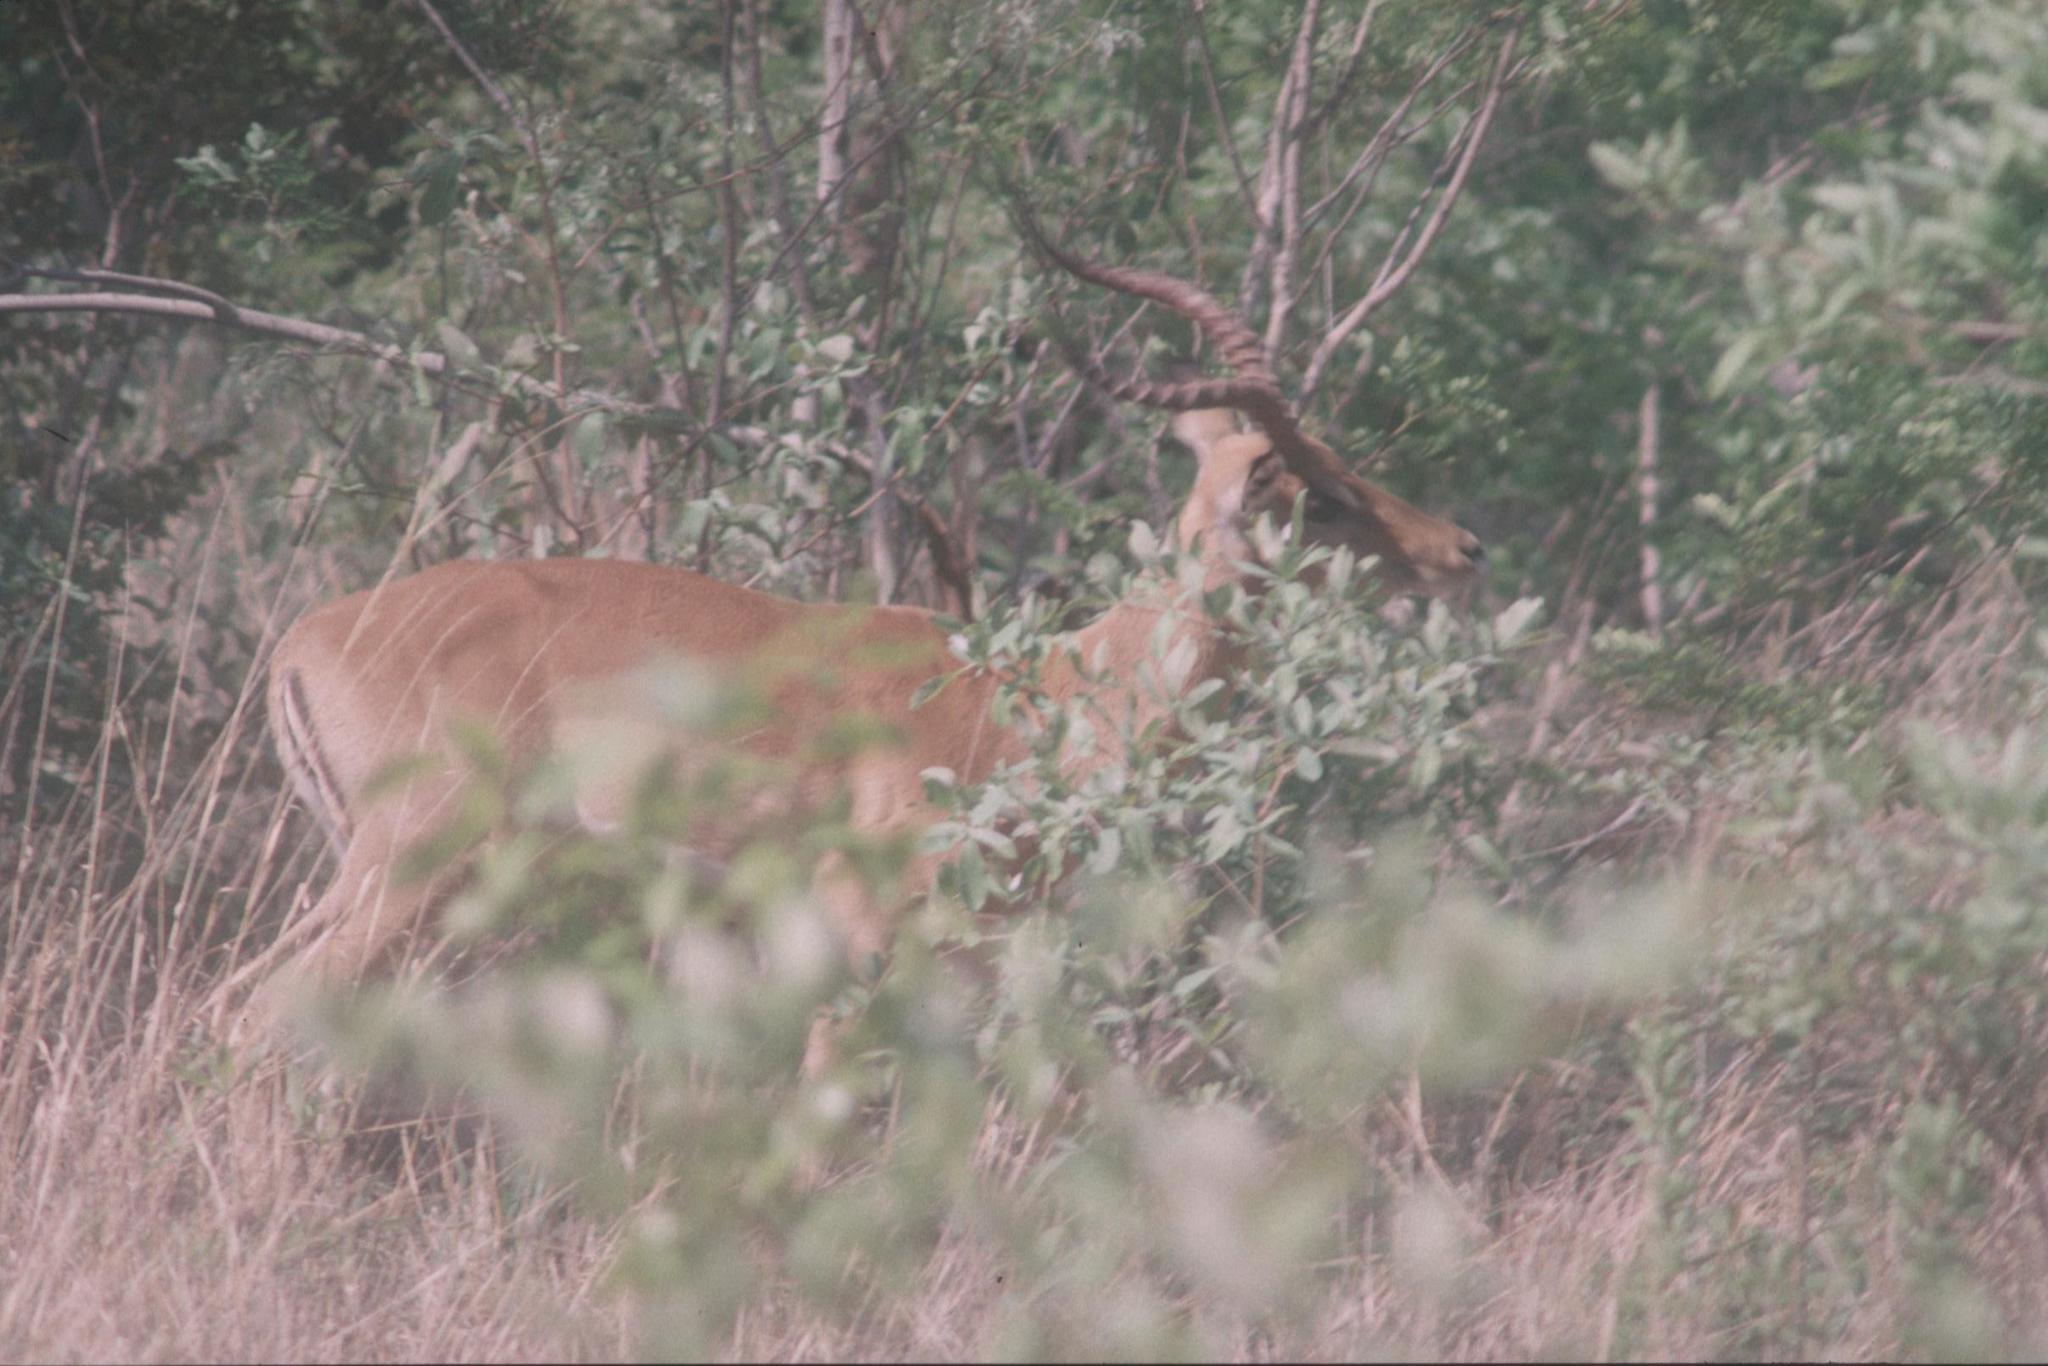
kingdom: Animalia
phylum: Chordata
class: Mammalia
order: Artiodactyla
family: Bovidae
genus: Aepyceros
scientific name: Aepyceros melampus
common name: Impala
